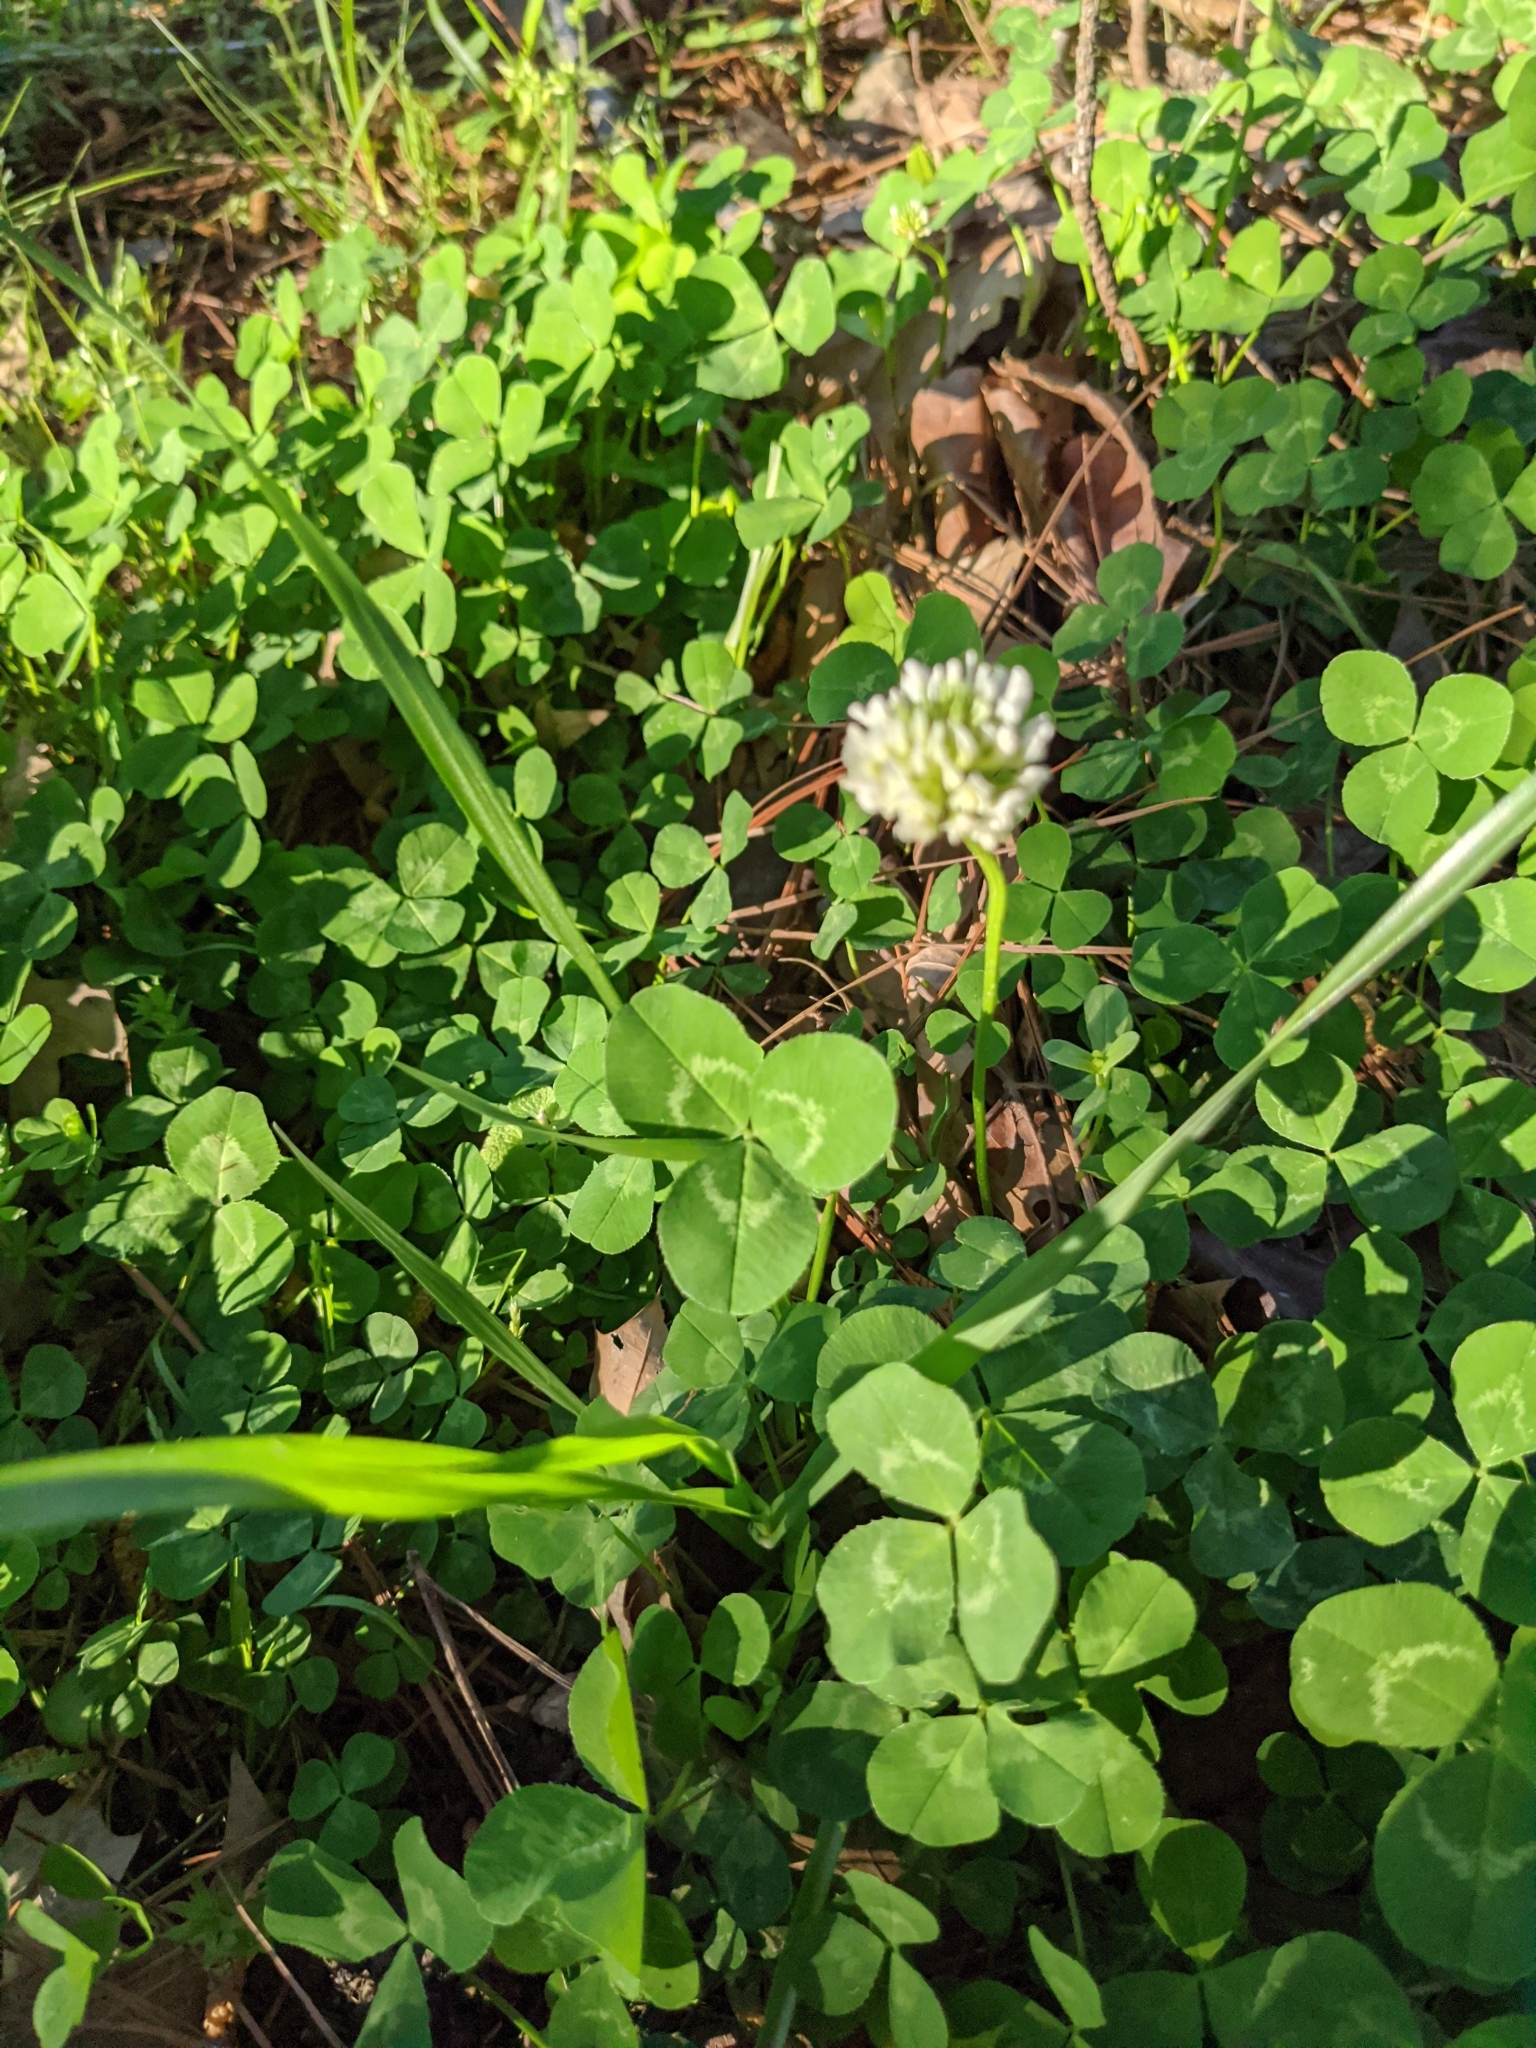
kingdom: Plantae
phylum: Tracheophyta
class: Magnoliopsida
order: Fabales
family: Fabaceae
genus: Trifolium
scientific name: Trifolium repens
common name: White clover
